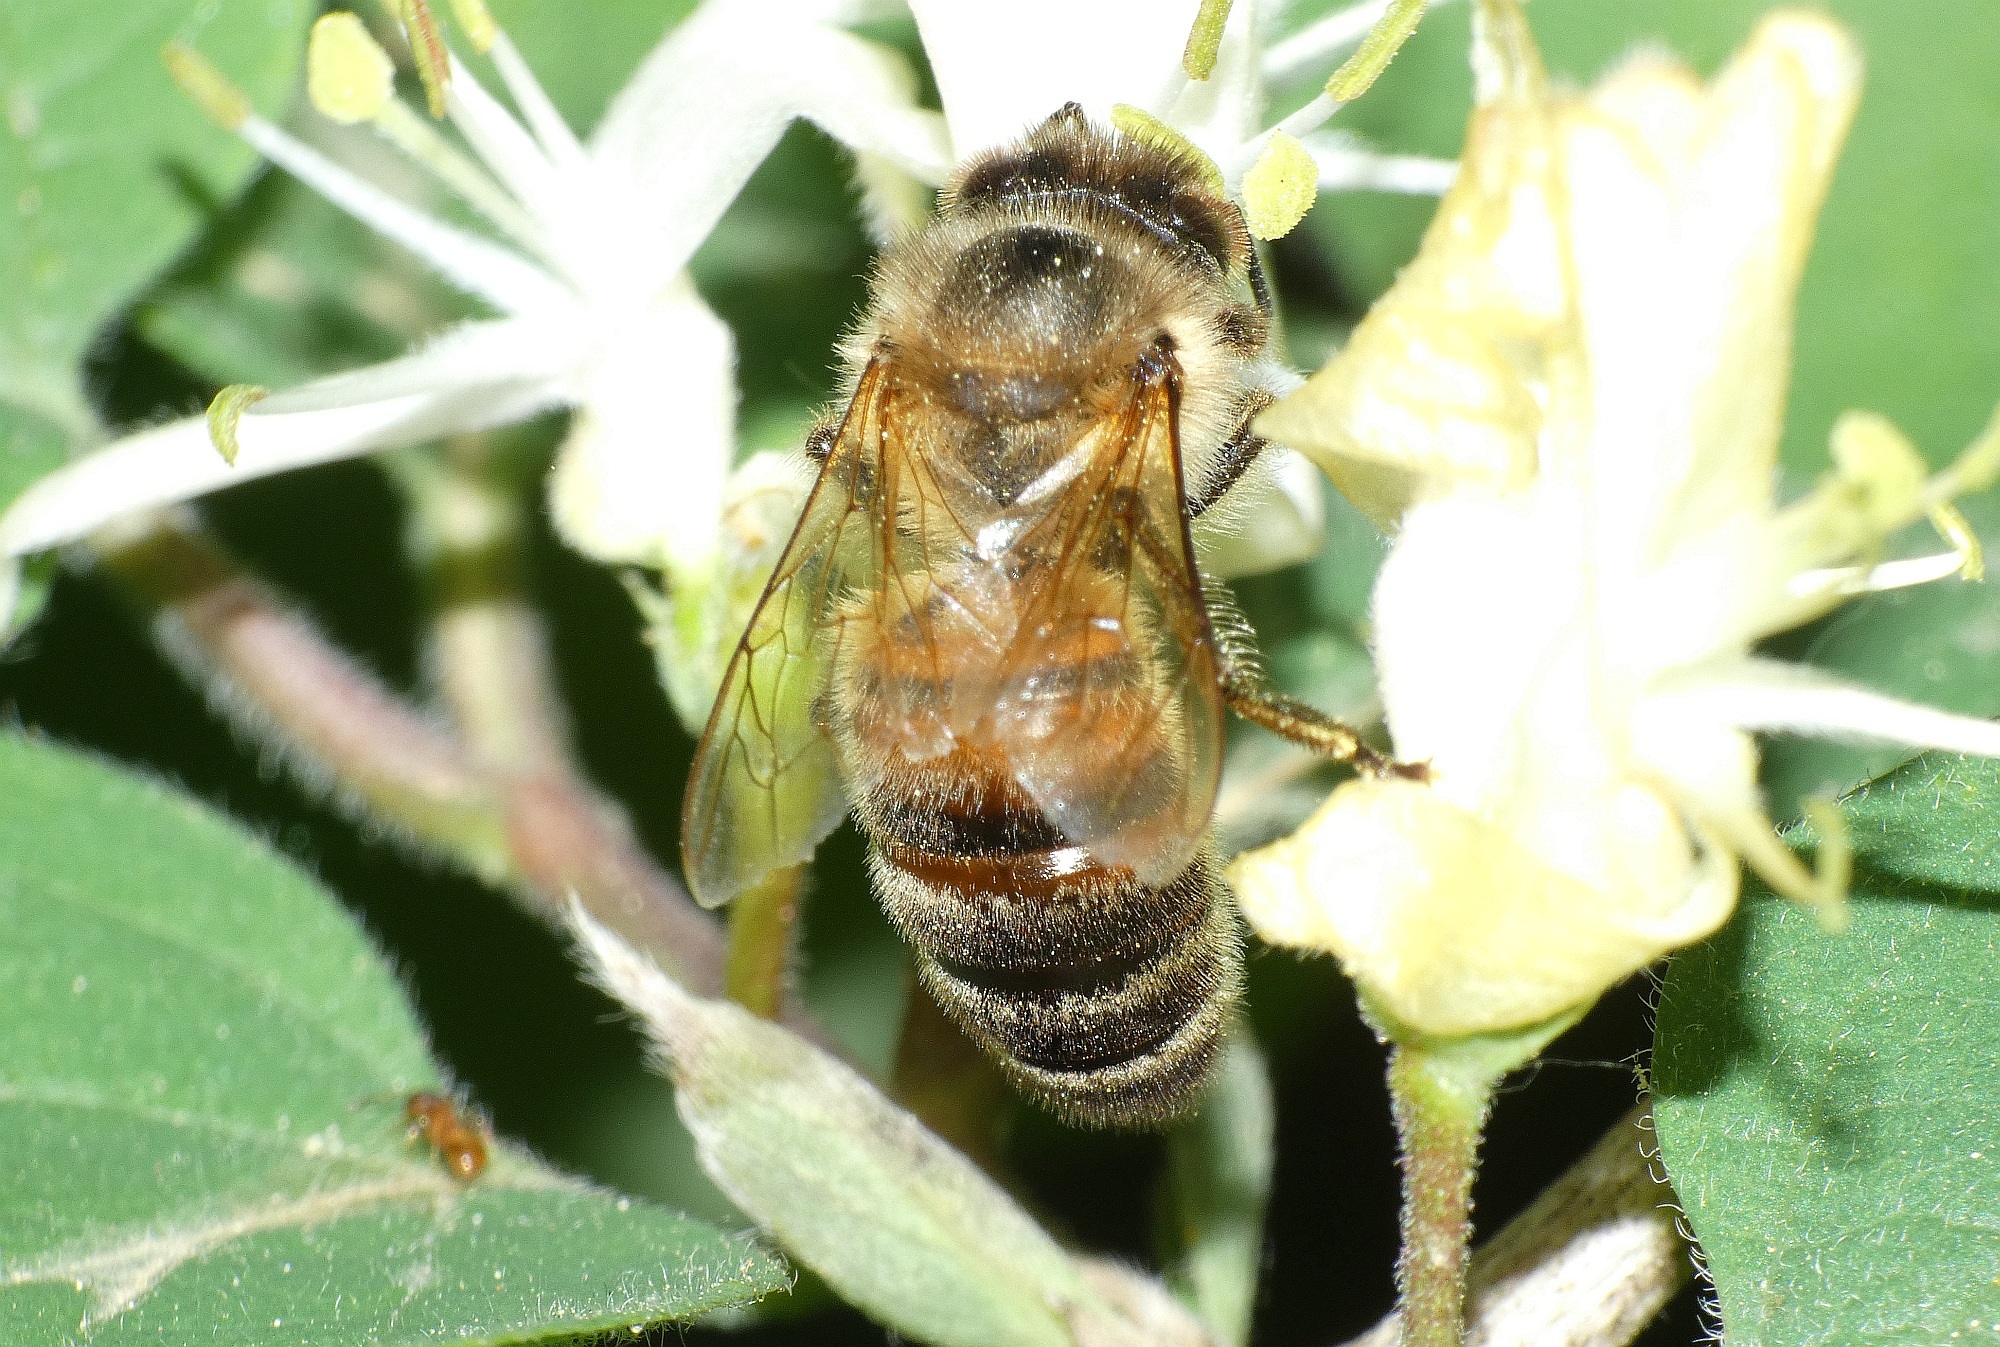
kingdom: Animalia
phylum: Arthropoda
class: Insecta
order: Hymenoptera
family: Apidae
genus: Apis
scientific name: Apis mellifera
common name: Honey bee
